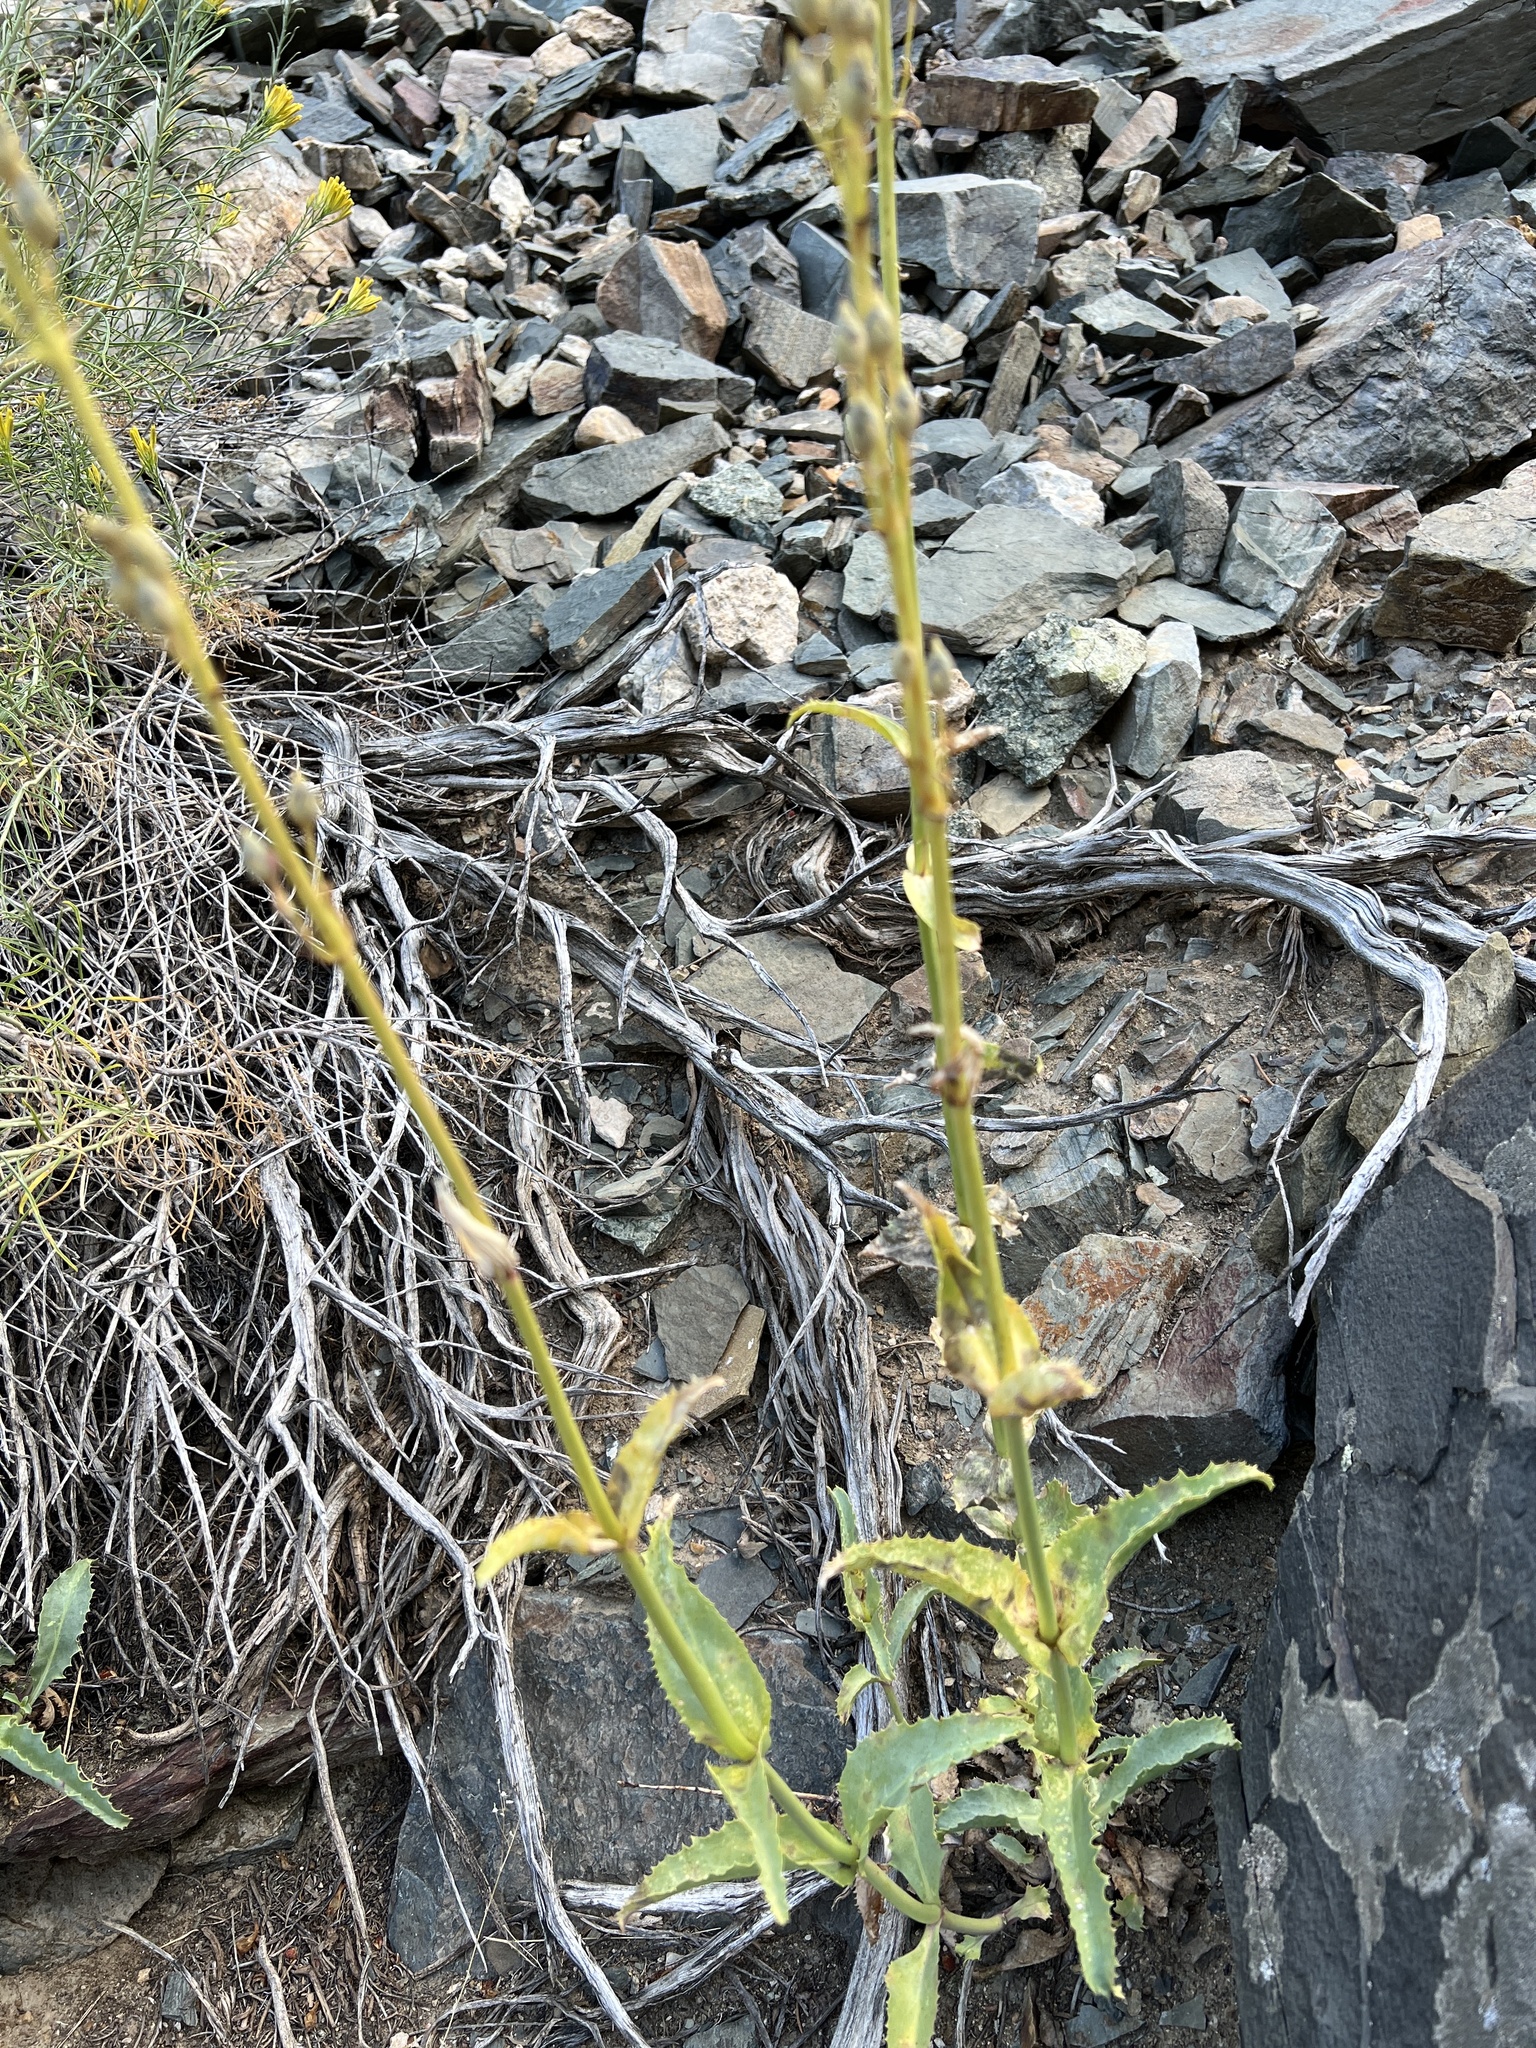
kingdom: Plantae
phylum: Tracheophyta
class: Magnoliopsida
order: Lamiales
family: Plantaginaceae
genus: Penstemon
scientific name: Penstemon floridus
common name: Panamint penstemon
